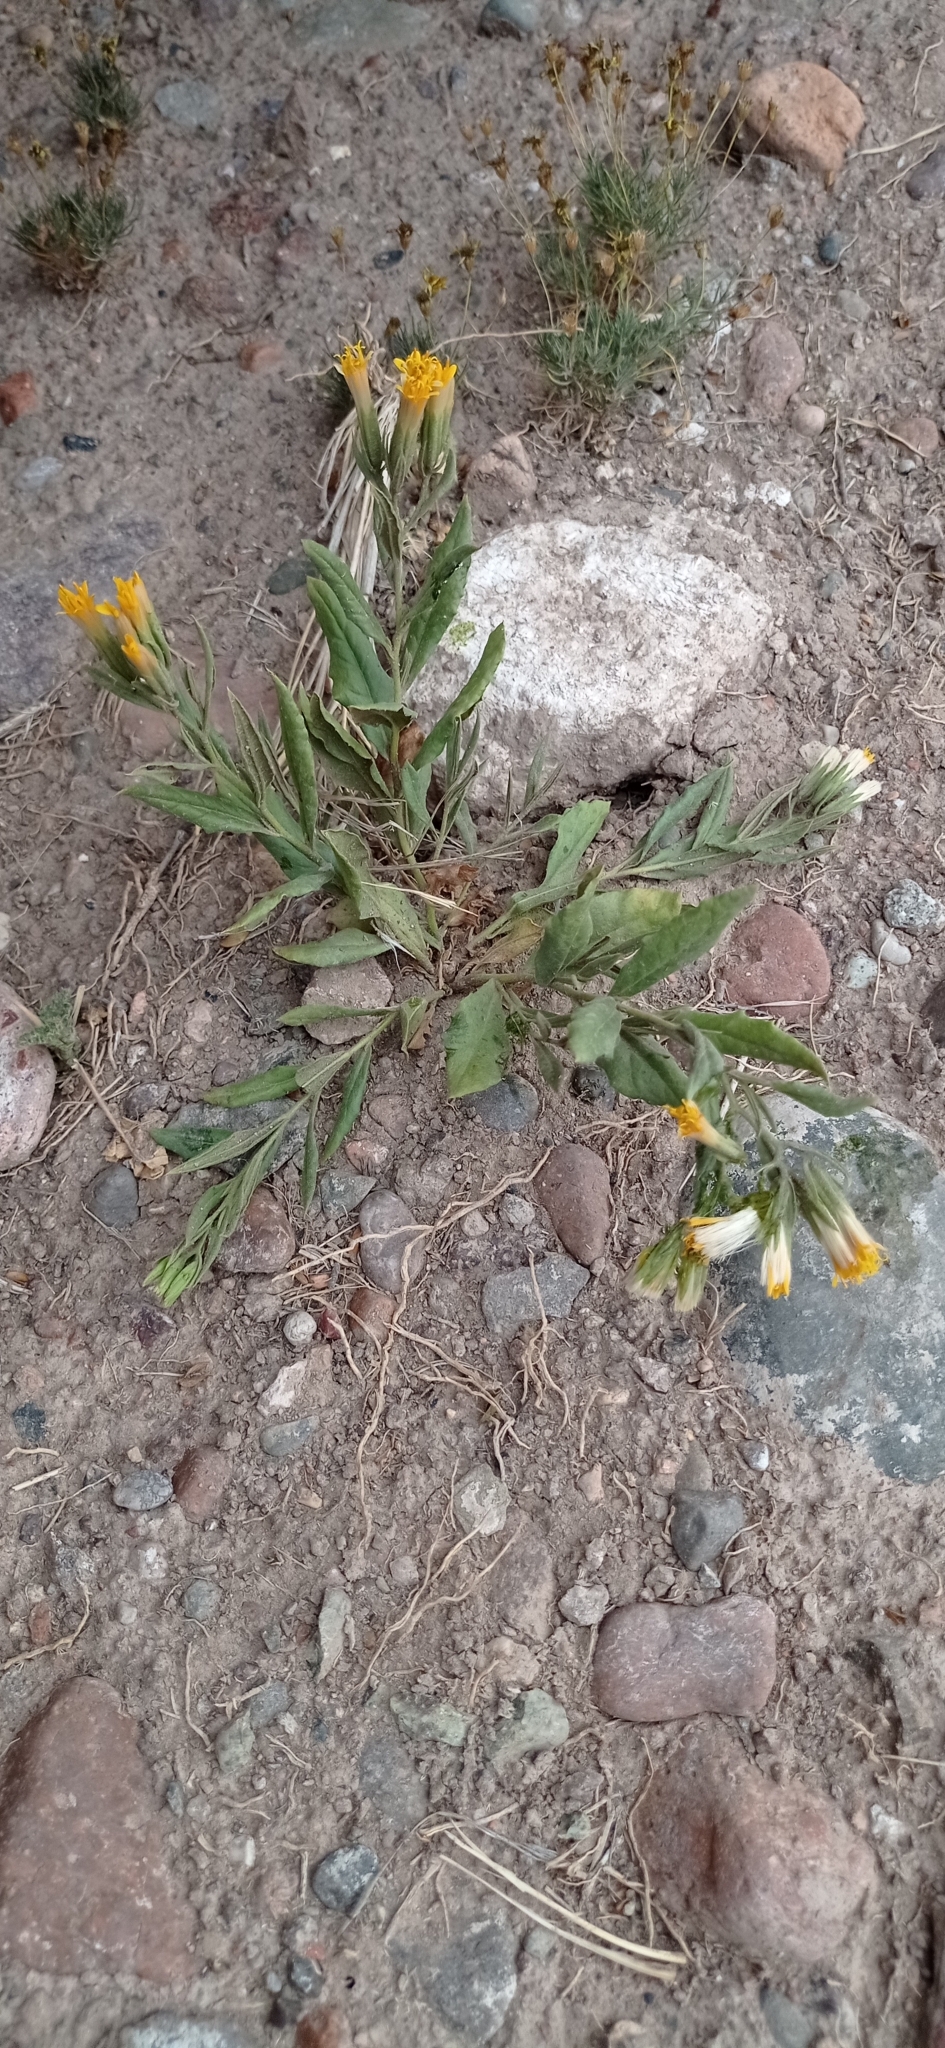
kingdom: Plantae
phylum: Tracheophyta
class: Magnoliopsida
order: Asterales
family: Asteraceae
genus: Trixis
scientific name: Trixis cacalioides
